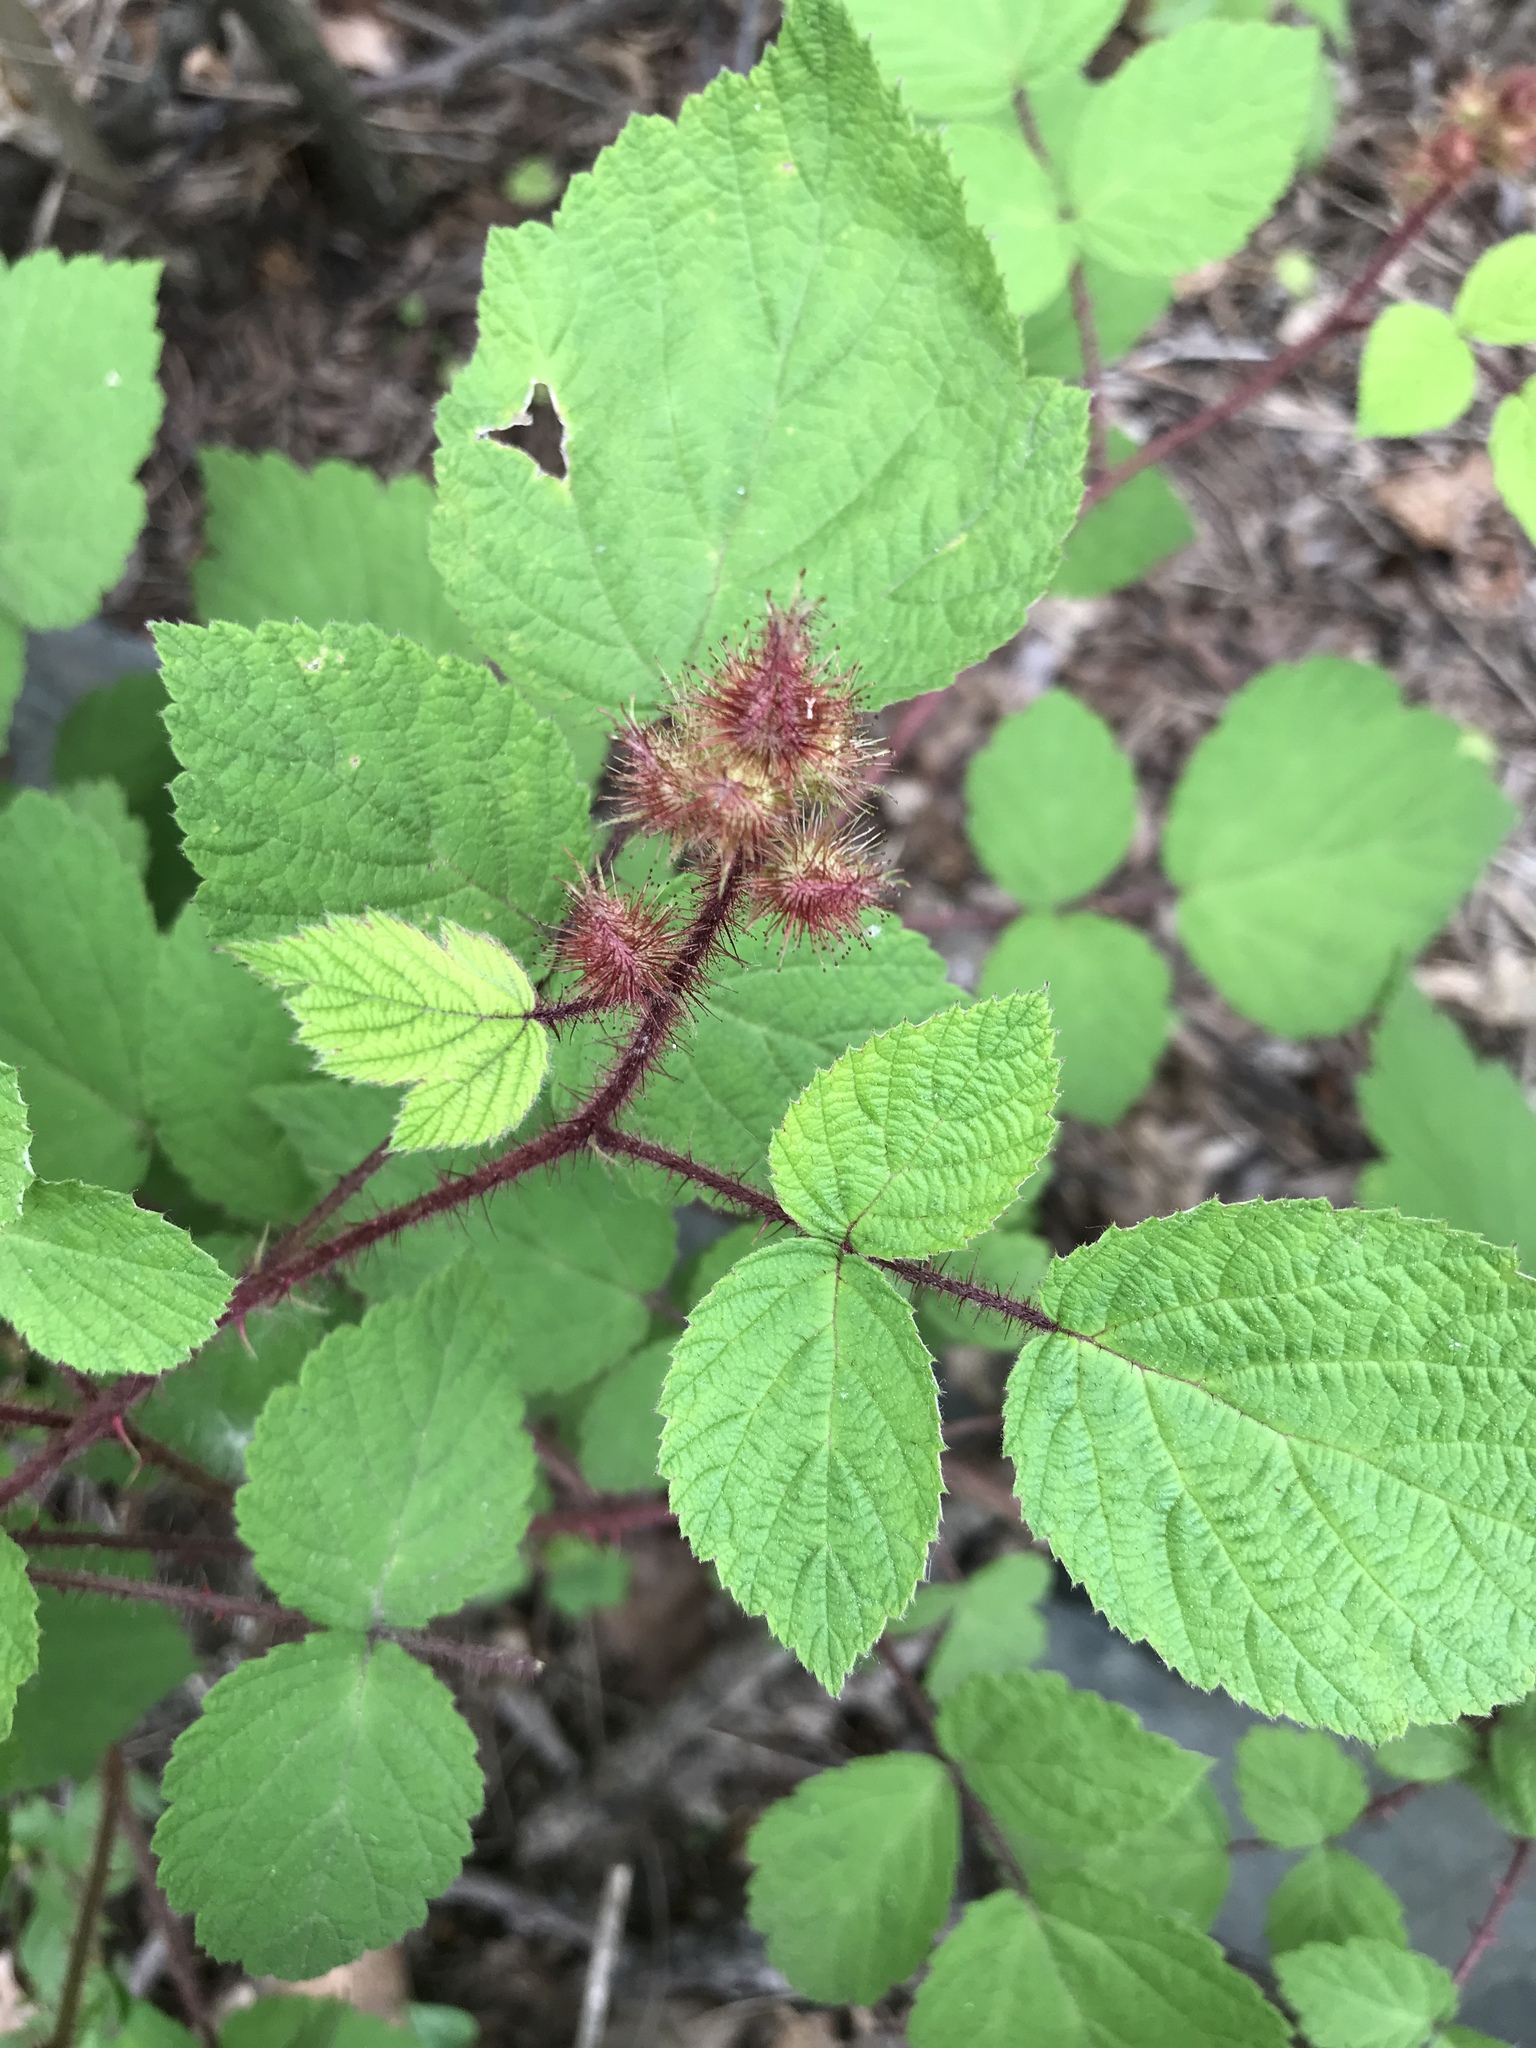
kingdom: Plantae
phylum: Tracheophyta
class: Magnoliopsida
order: Rosales
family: Rosaceae
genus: Rubus
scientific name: Rubus phoenicolasius
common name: Japanese wineberry
